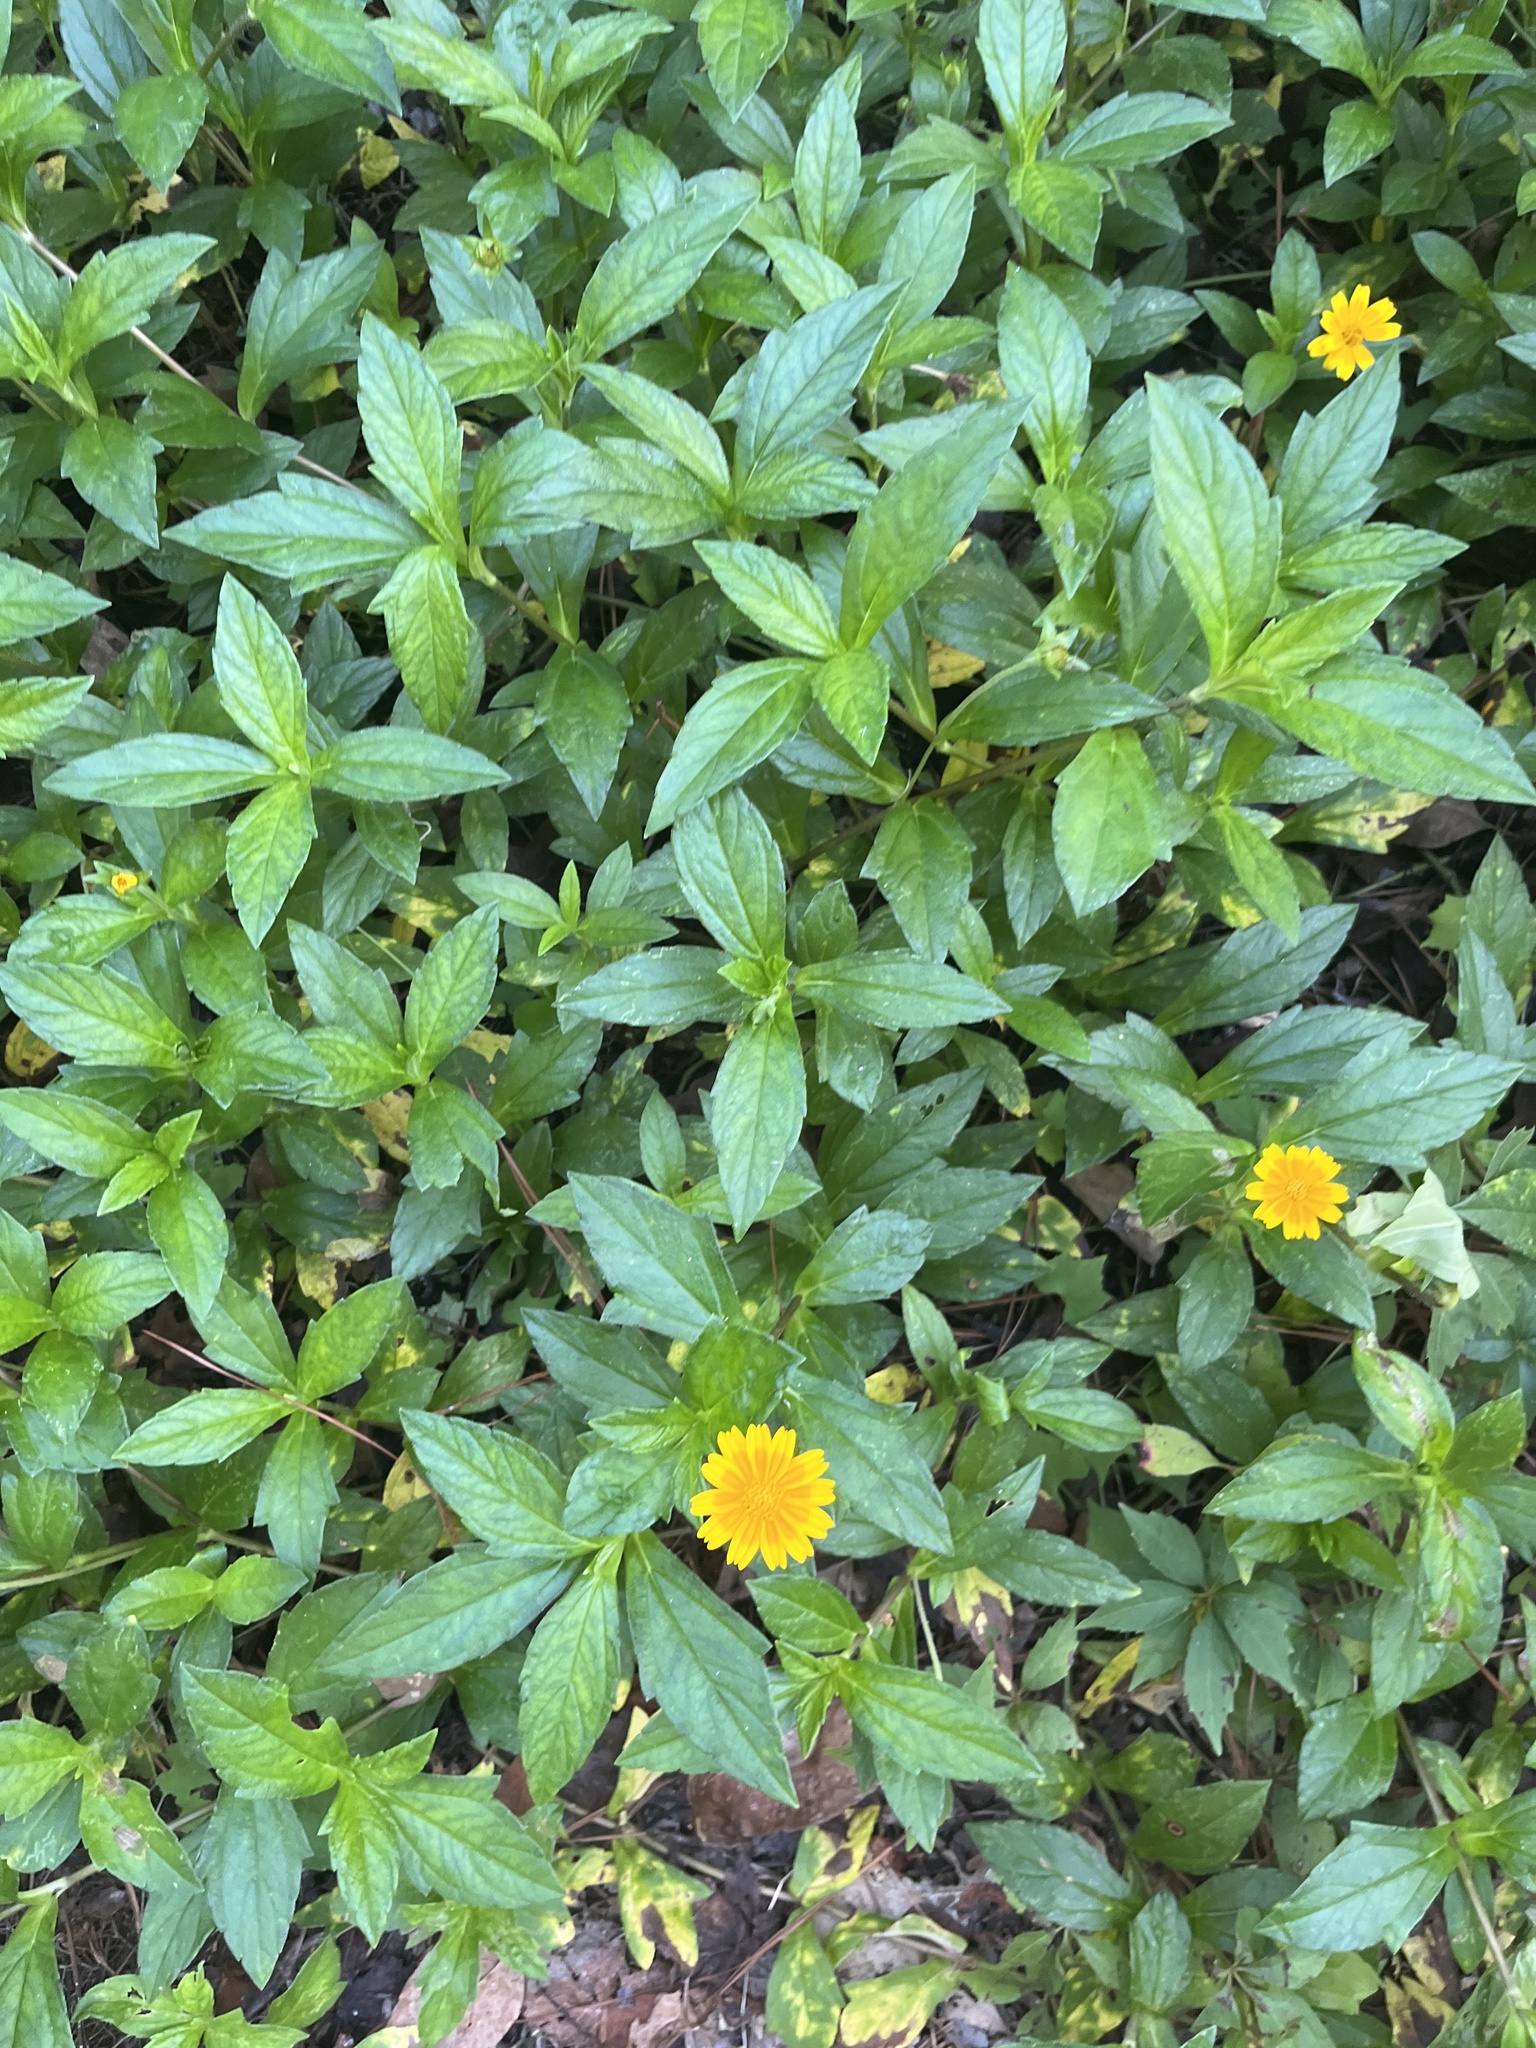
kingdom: Plantae
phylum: Tracheophyta
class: Magnoliopsida
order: Asterales
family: Asteraceae
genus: Sphagneticola
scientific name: Sphagneticola trilobata
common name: Bay biscayne creeping-oxeye
